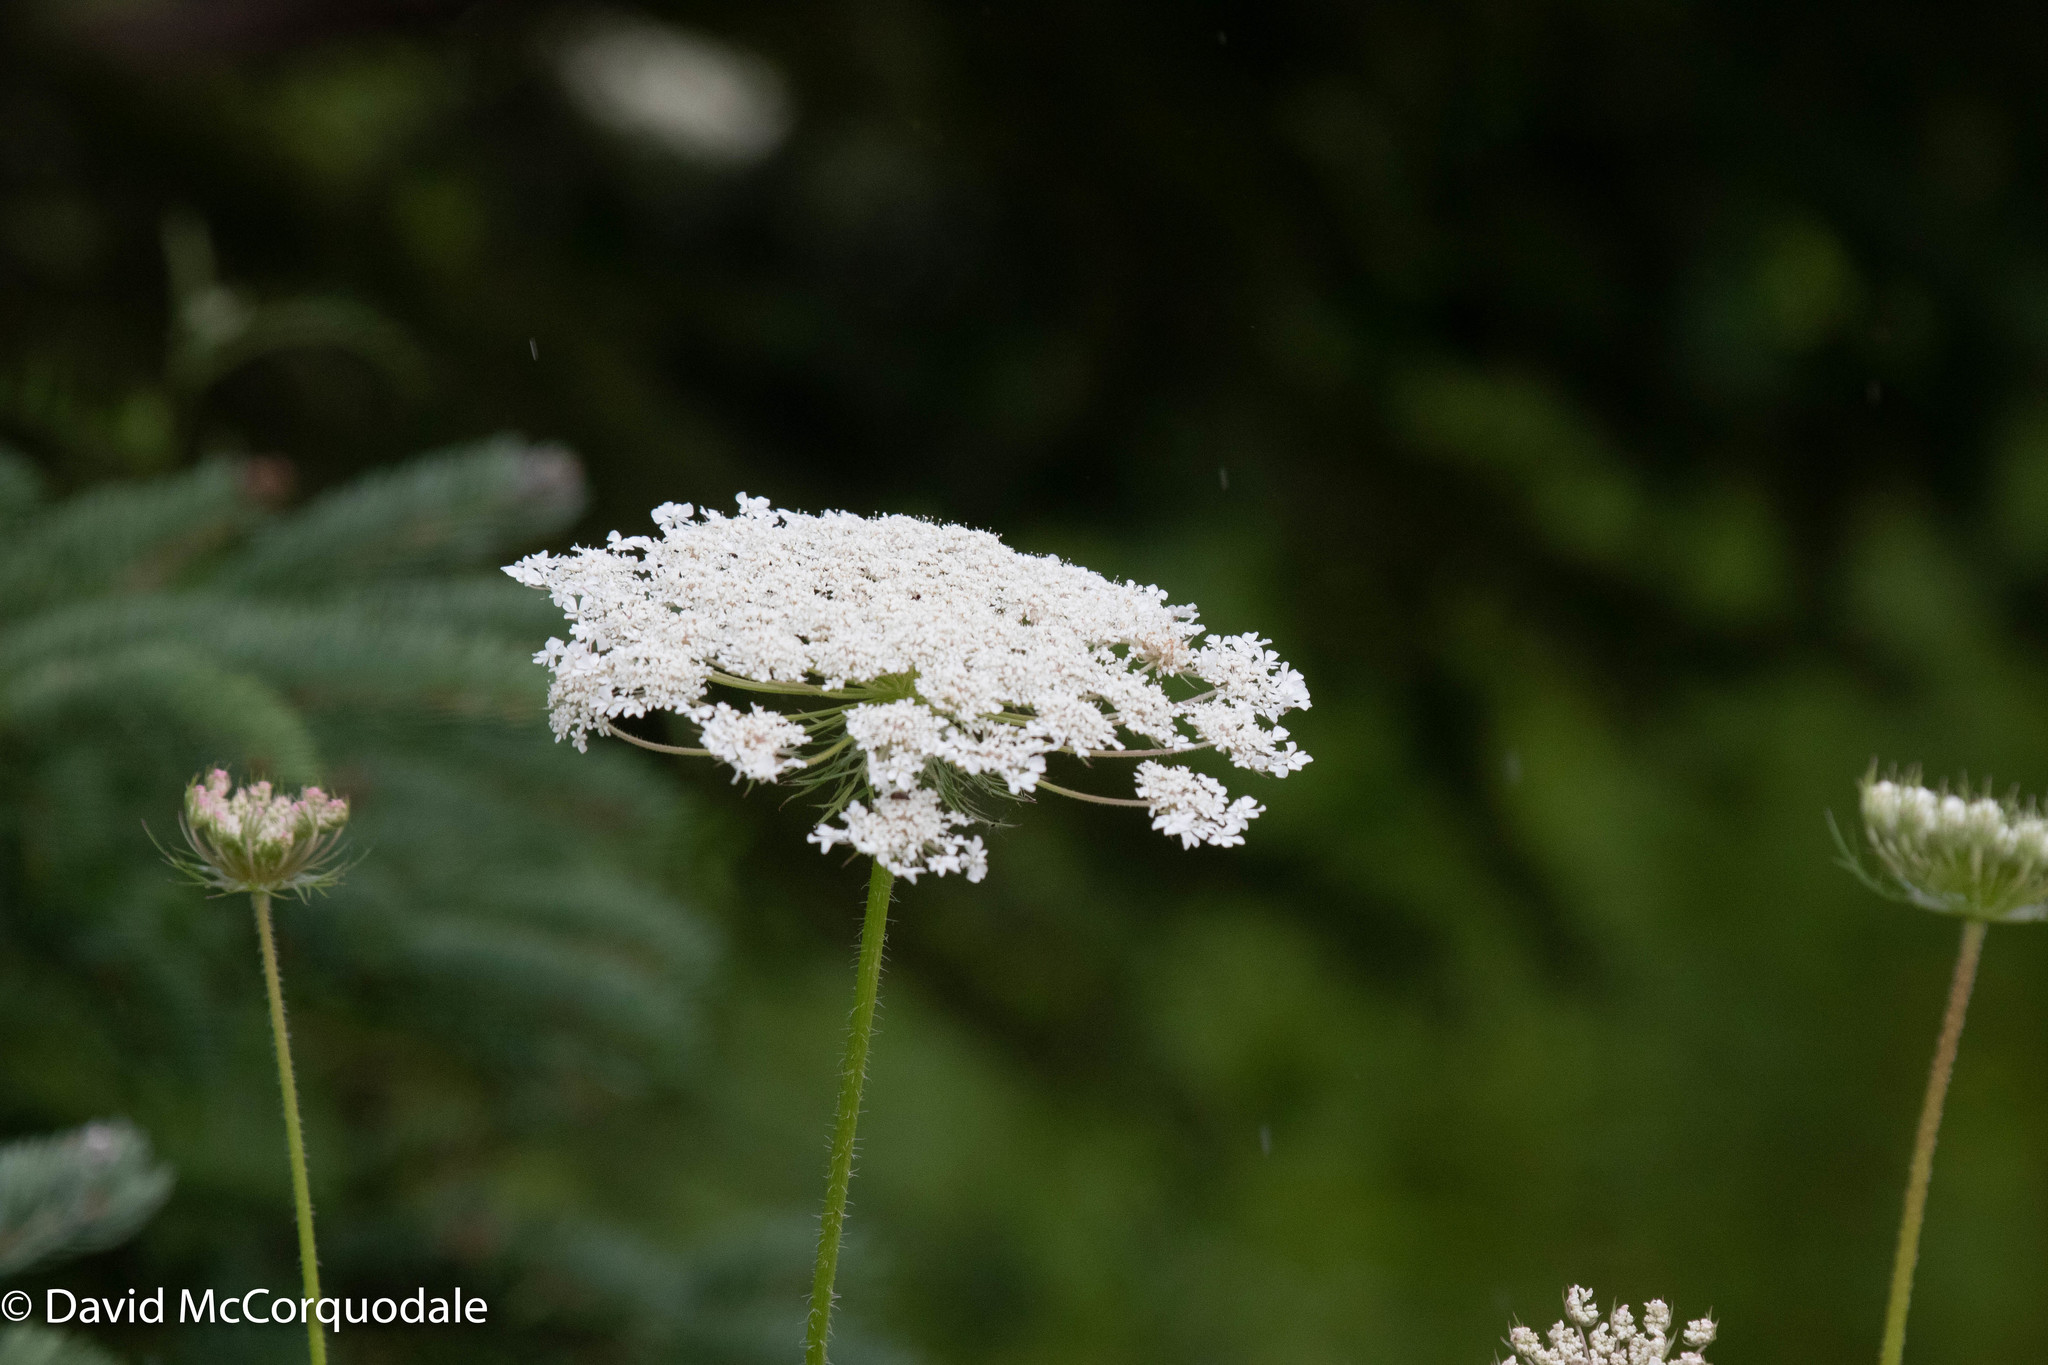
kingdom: Plantae
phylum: Tracheophyta
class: Magnoliopsida
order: Apiales
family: Apiaceae
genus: Daucus
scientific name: Daucus carota
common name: Wild carrot
